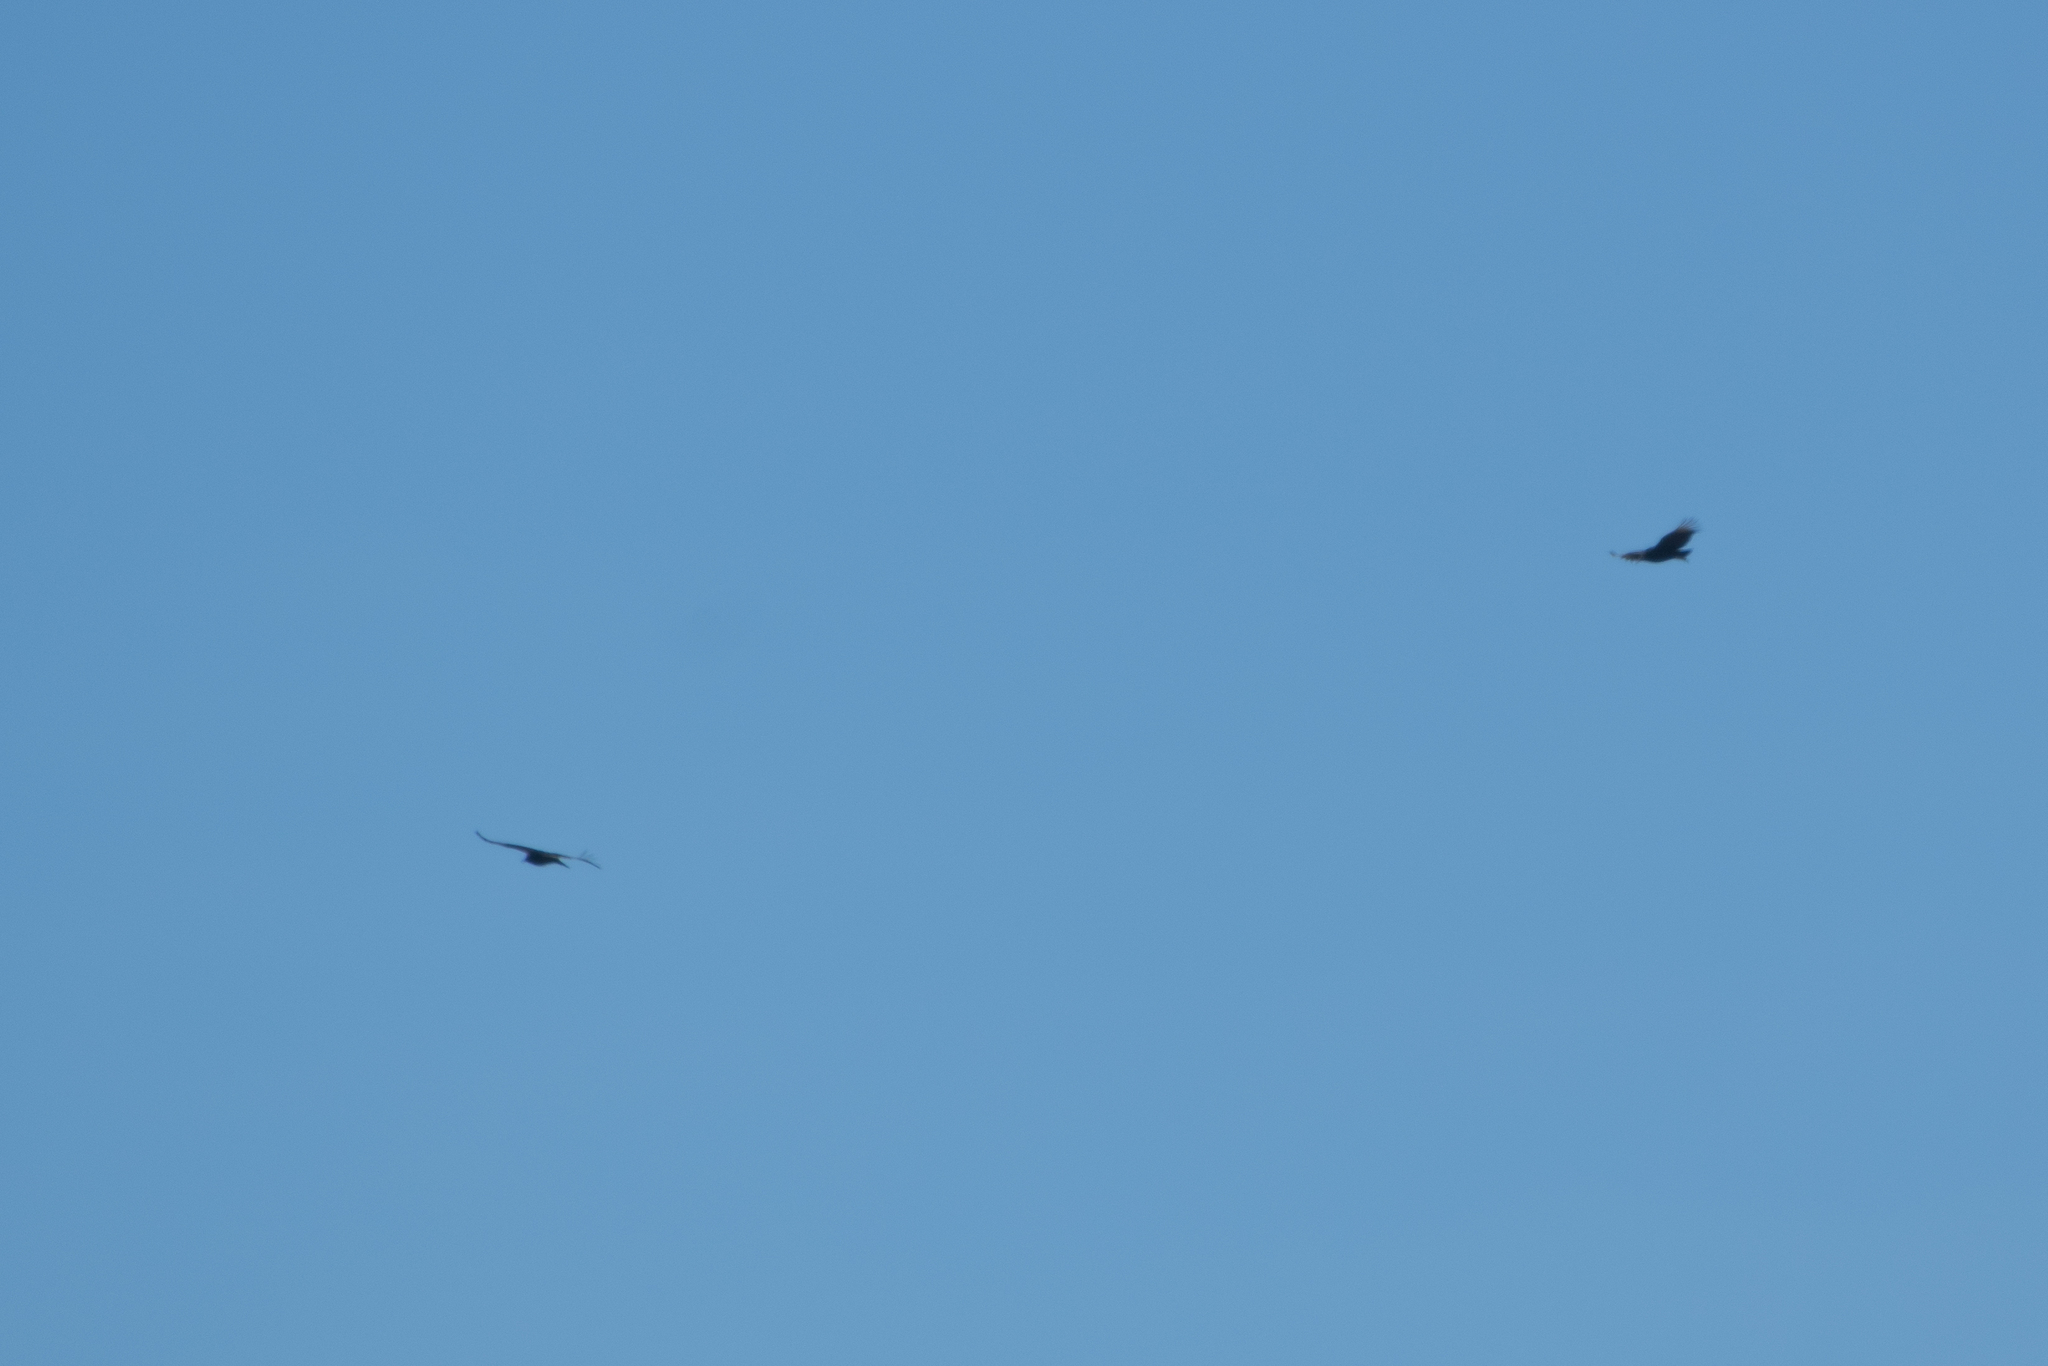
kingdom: Animalia
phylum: Chordata
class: Aves
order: Accipitriformes
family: Cathartidae
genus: Coragyps
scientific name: Coragyps atratus
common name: Black vulture
